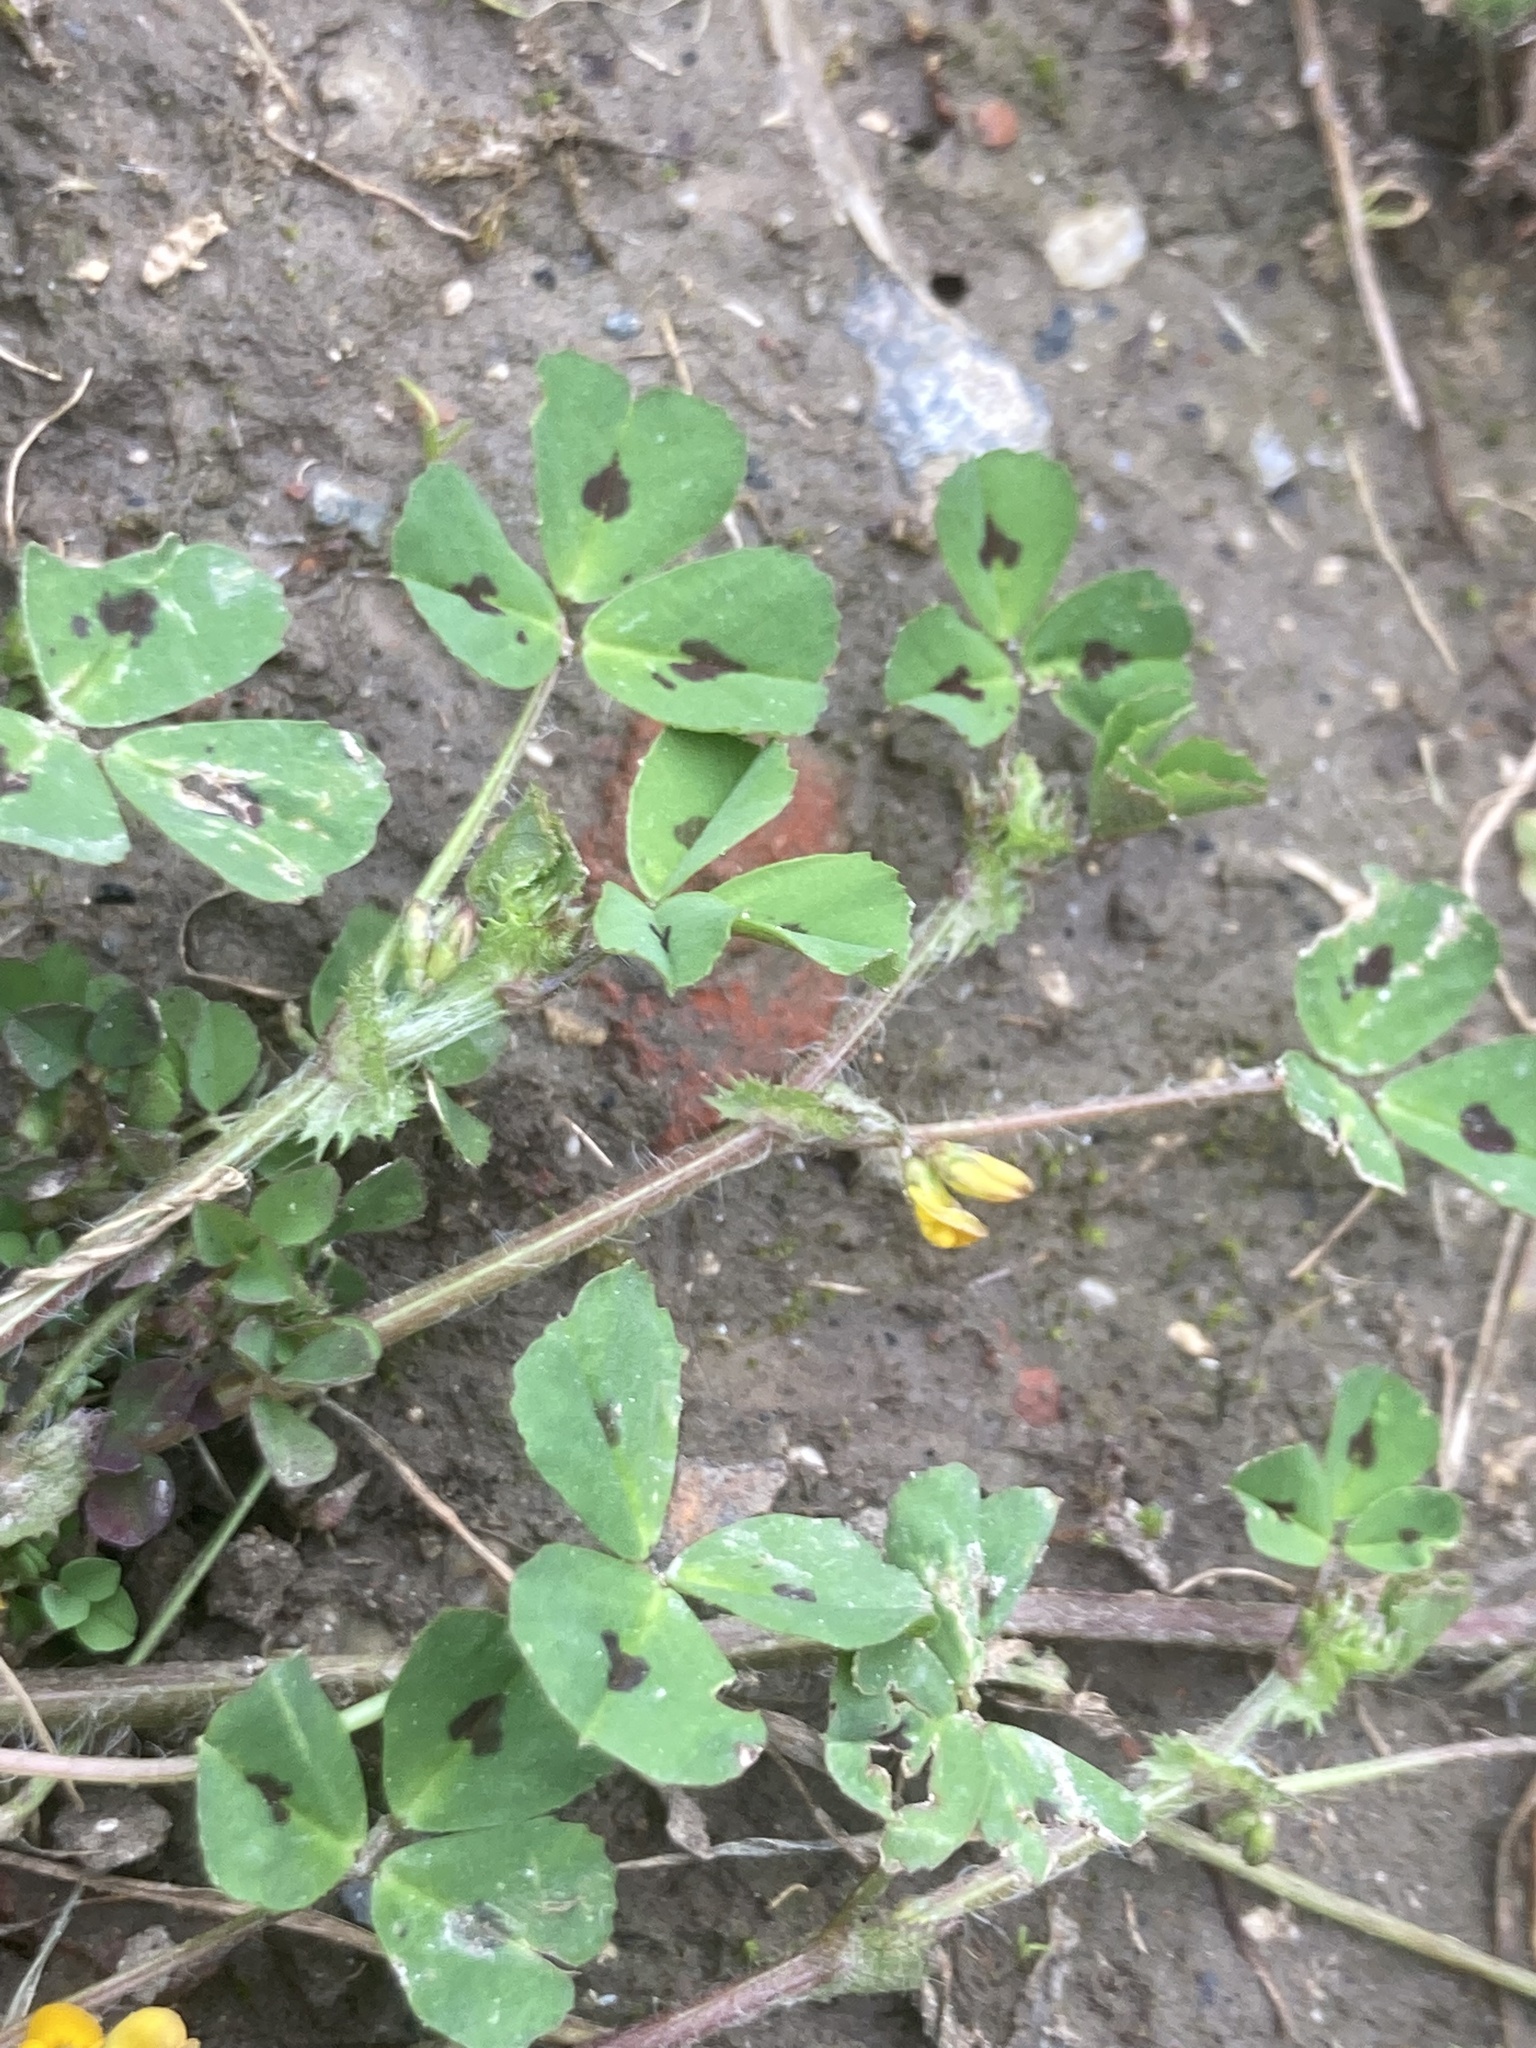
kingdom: Plantae
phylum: Tracheophyta
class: Magnoliopsida
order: Fabales
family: Fabaceae
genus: Medicago
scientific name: Medicago arabica
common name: Spotted medick
